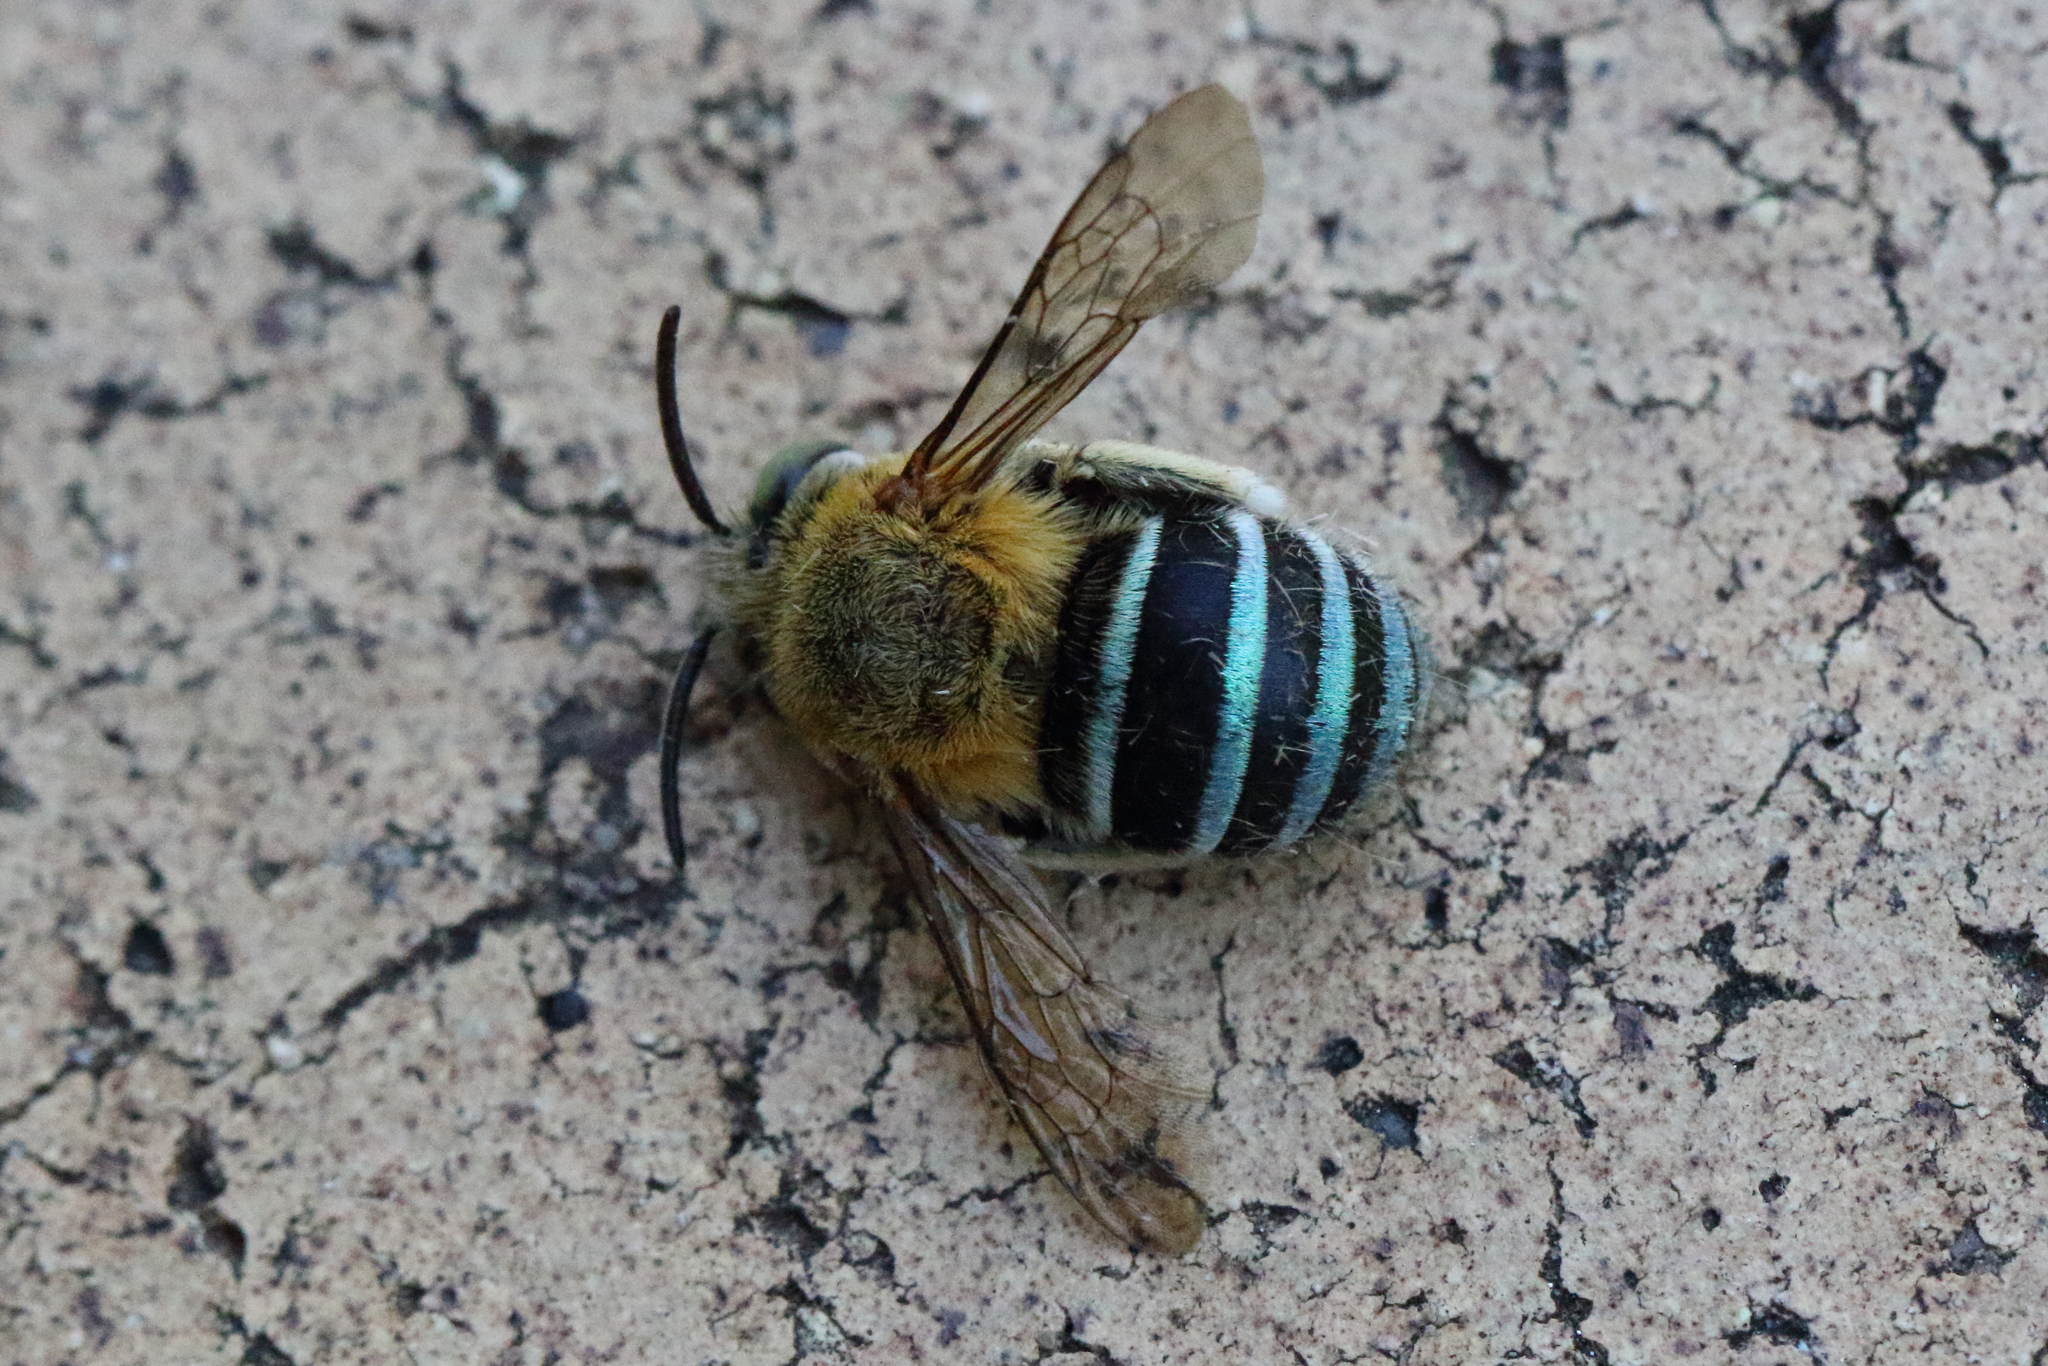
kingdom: Animalia
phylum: Arthropoda
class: Insecta
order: Hymenoptera
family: Apidae
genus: Amegilla
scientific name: Amegilla
